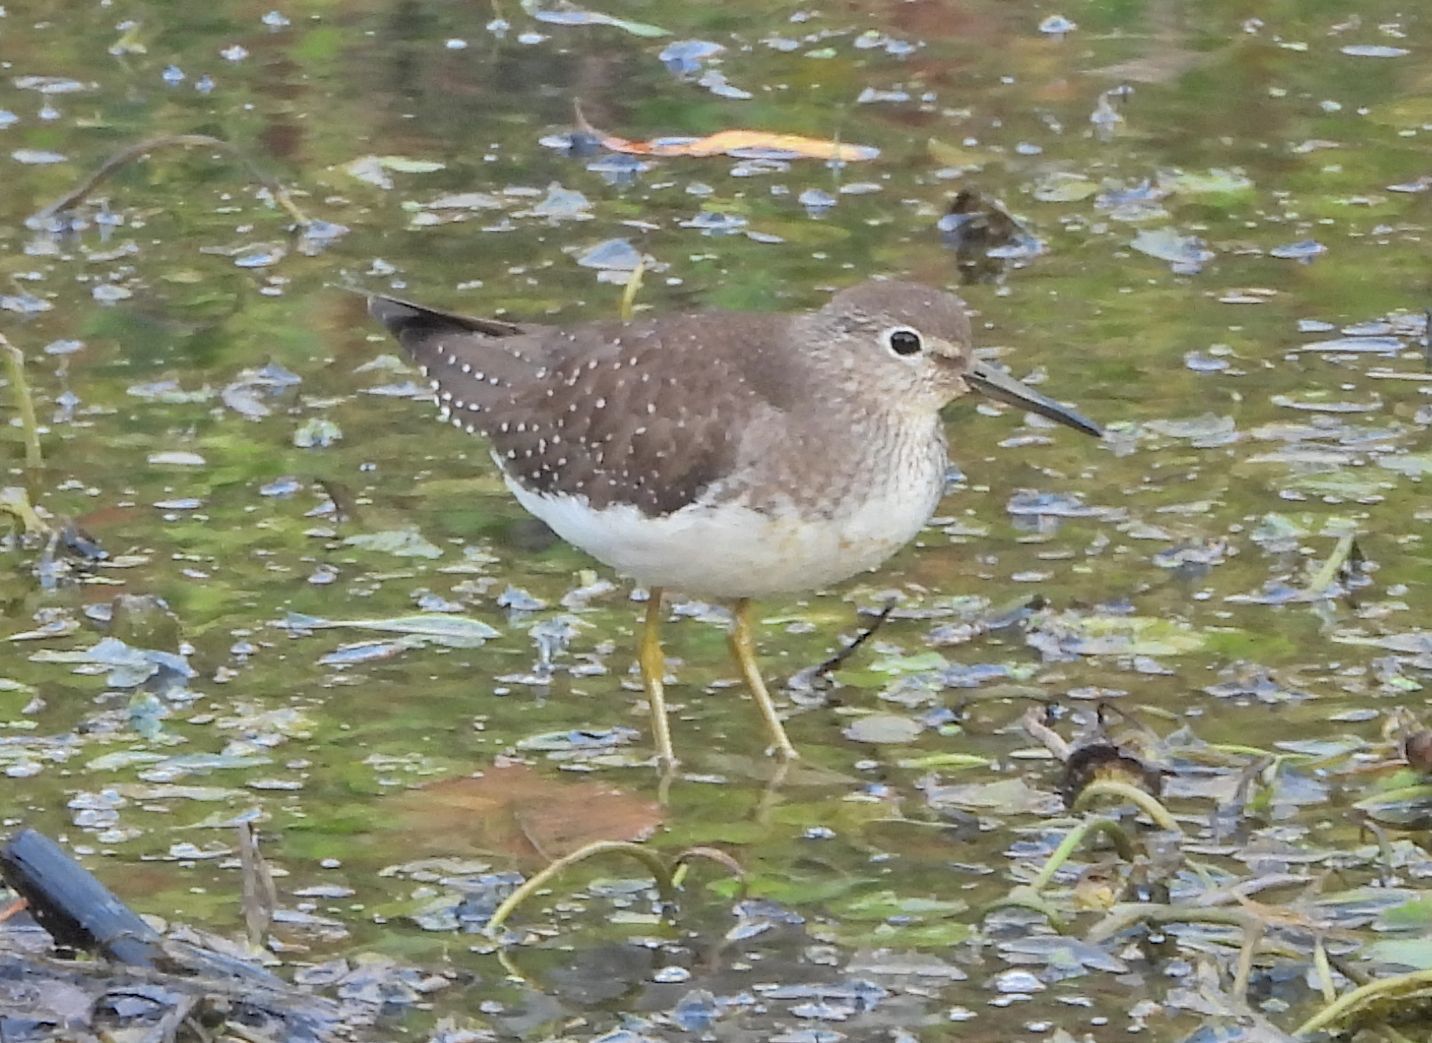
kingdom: Animalia
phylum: Chordata
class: Aves
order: Charadriiformes
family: Scolopacidae
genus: Tringa
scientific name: Tringa solitaria
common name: Solitary sandpiper
